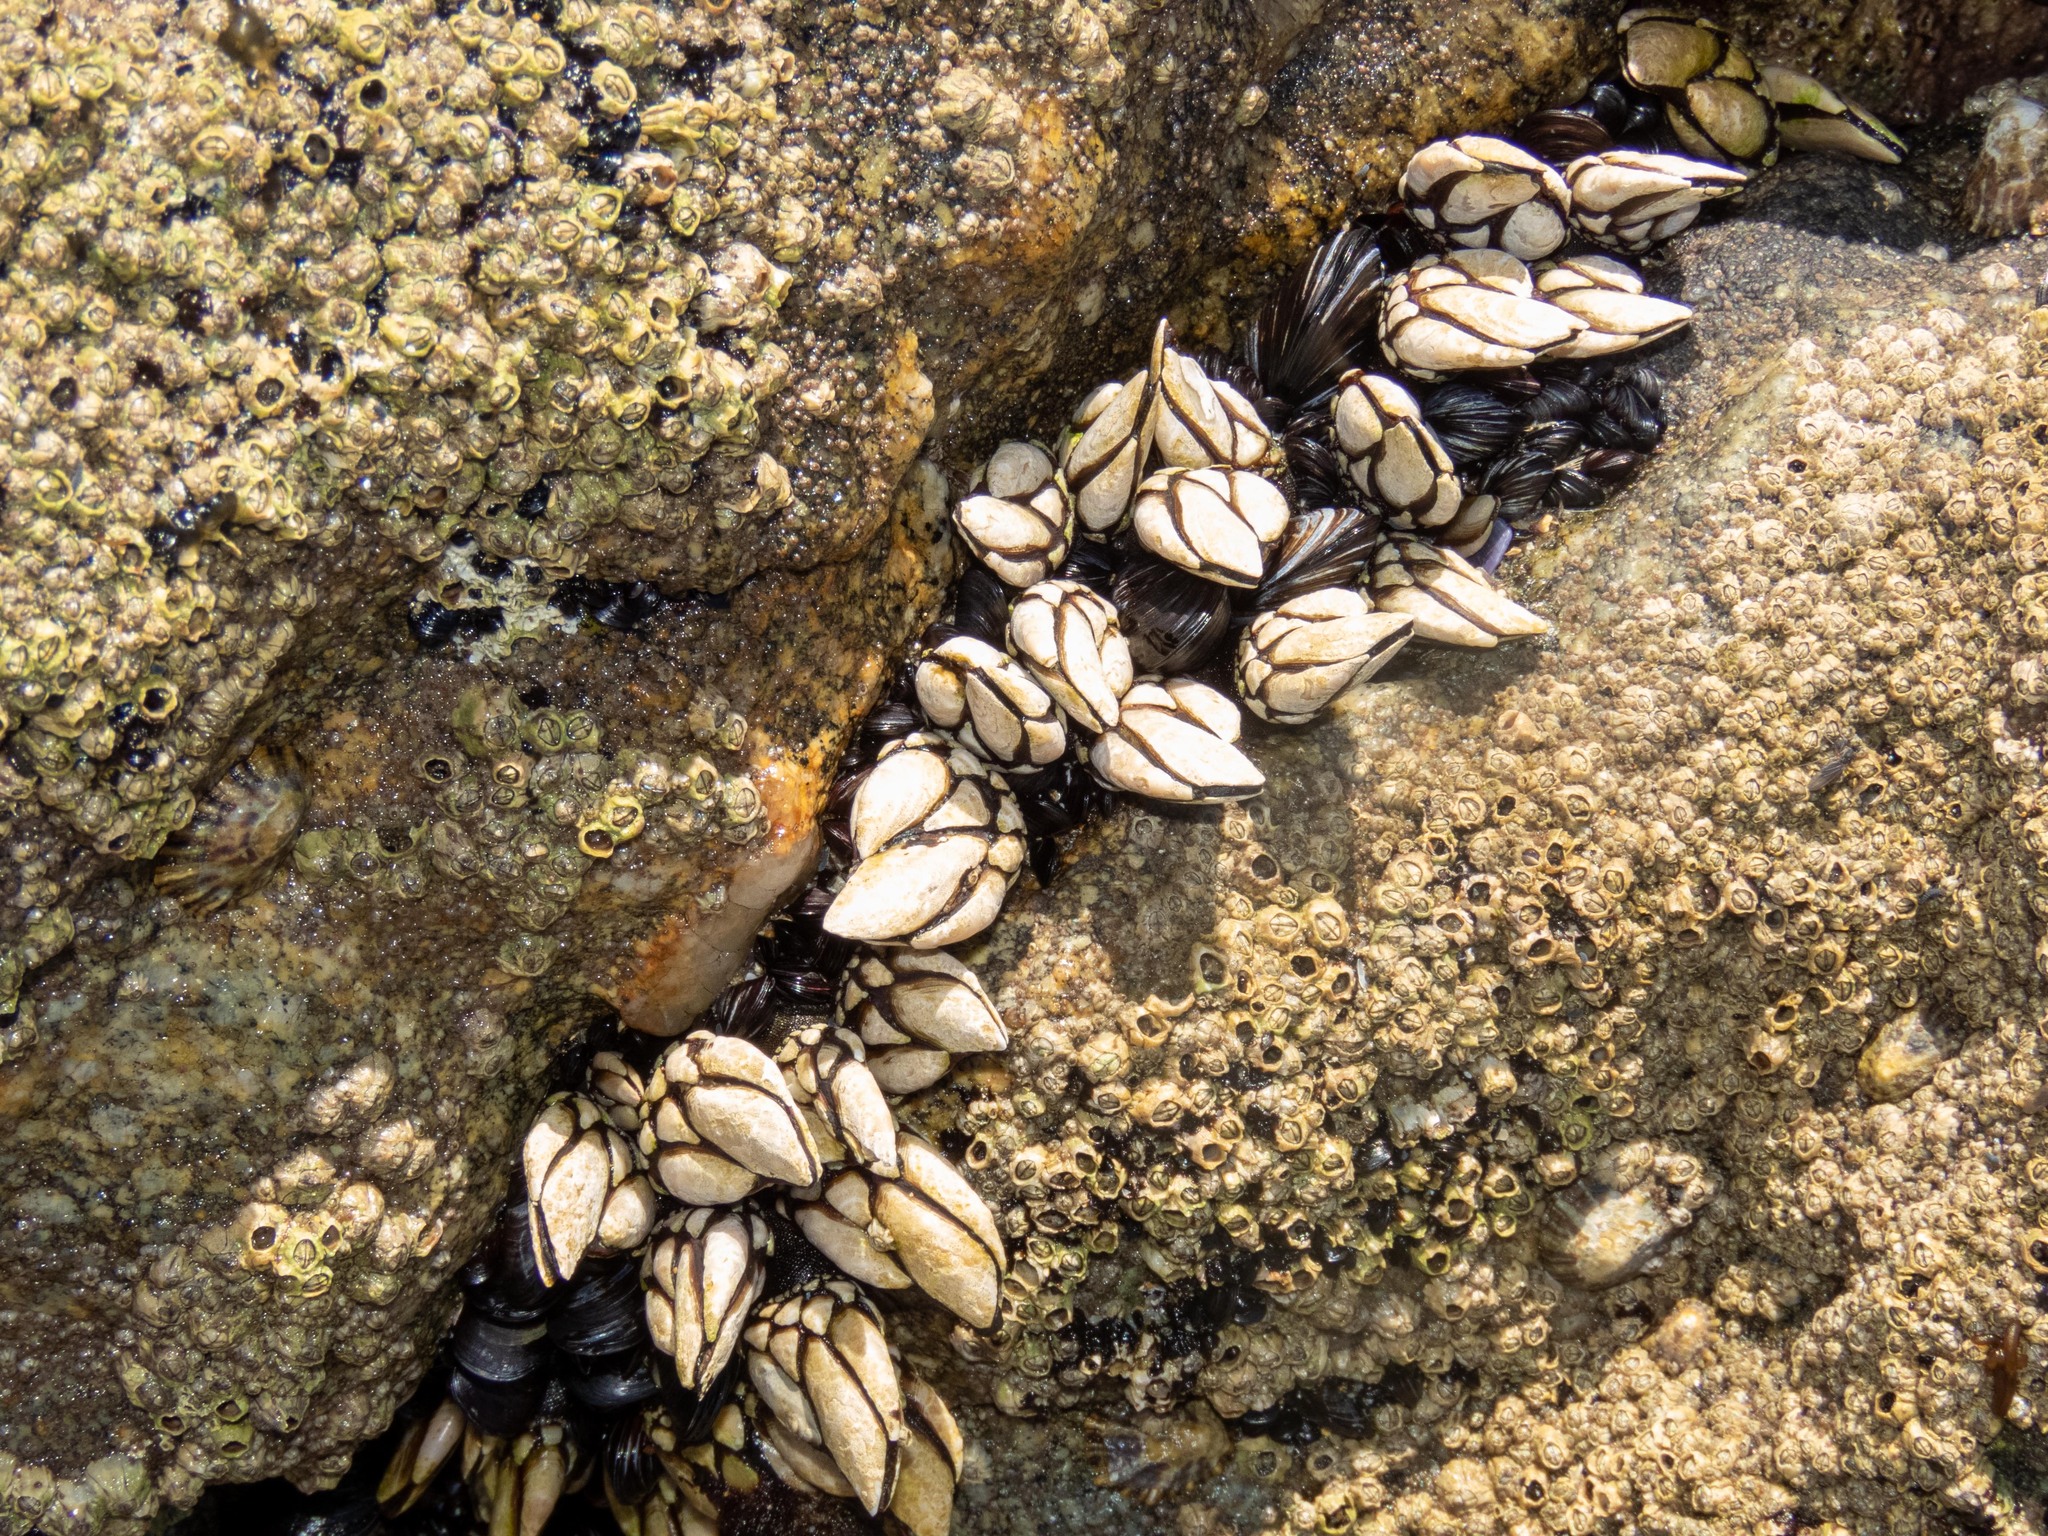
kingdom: Animalia
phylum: Arthropoda
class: Maxillopoda
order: Pedunculata
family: Pollicipedidae
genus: Pollicipes
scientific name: Pollicipes pollicipes
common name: Gooseneck barnacle
